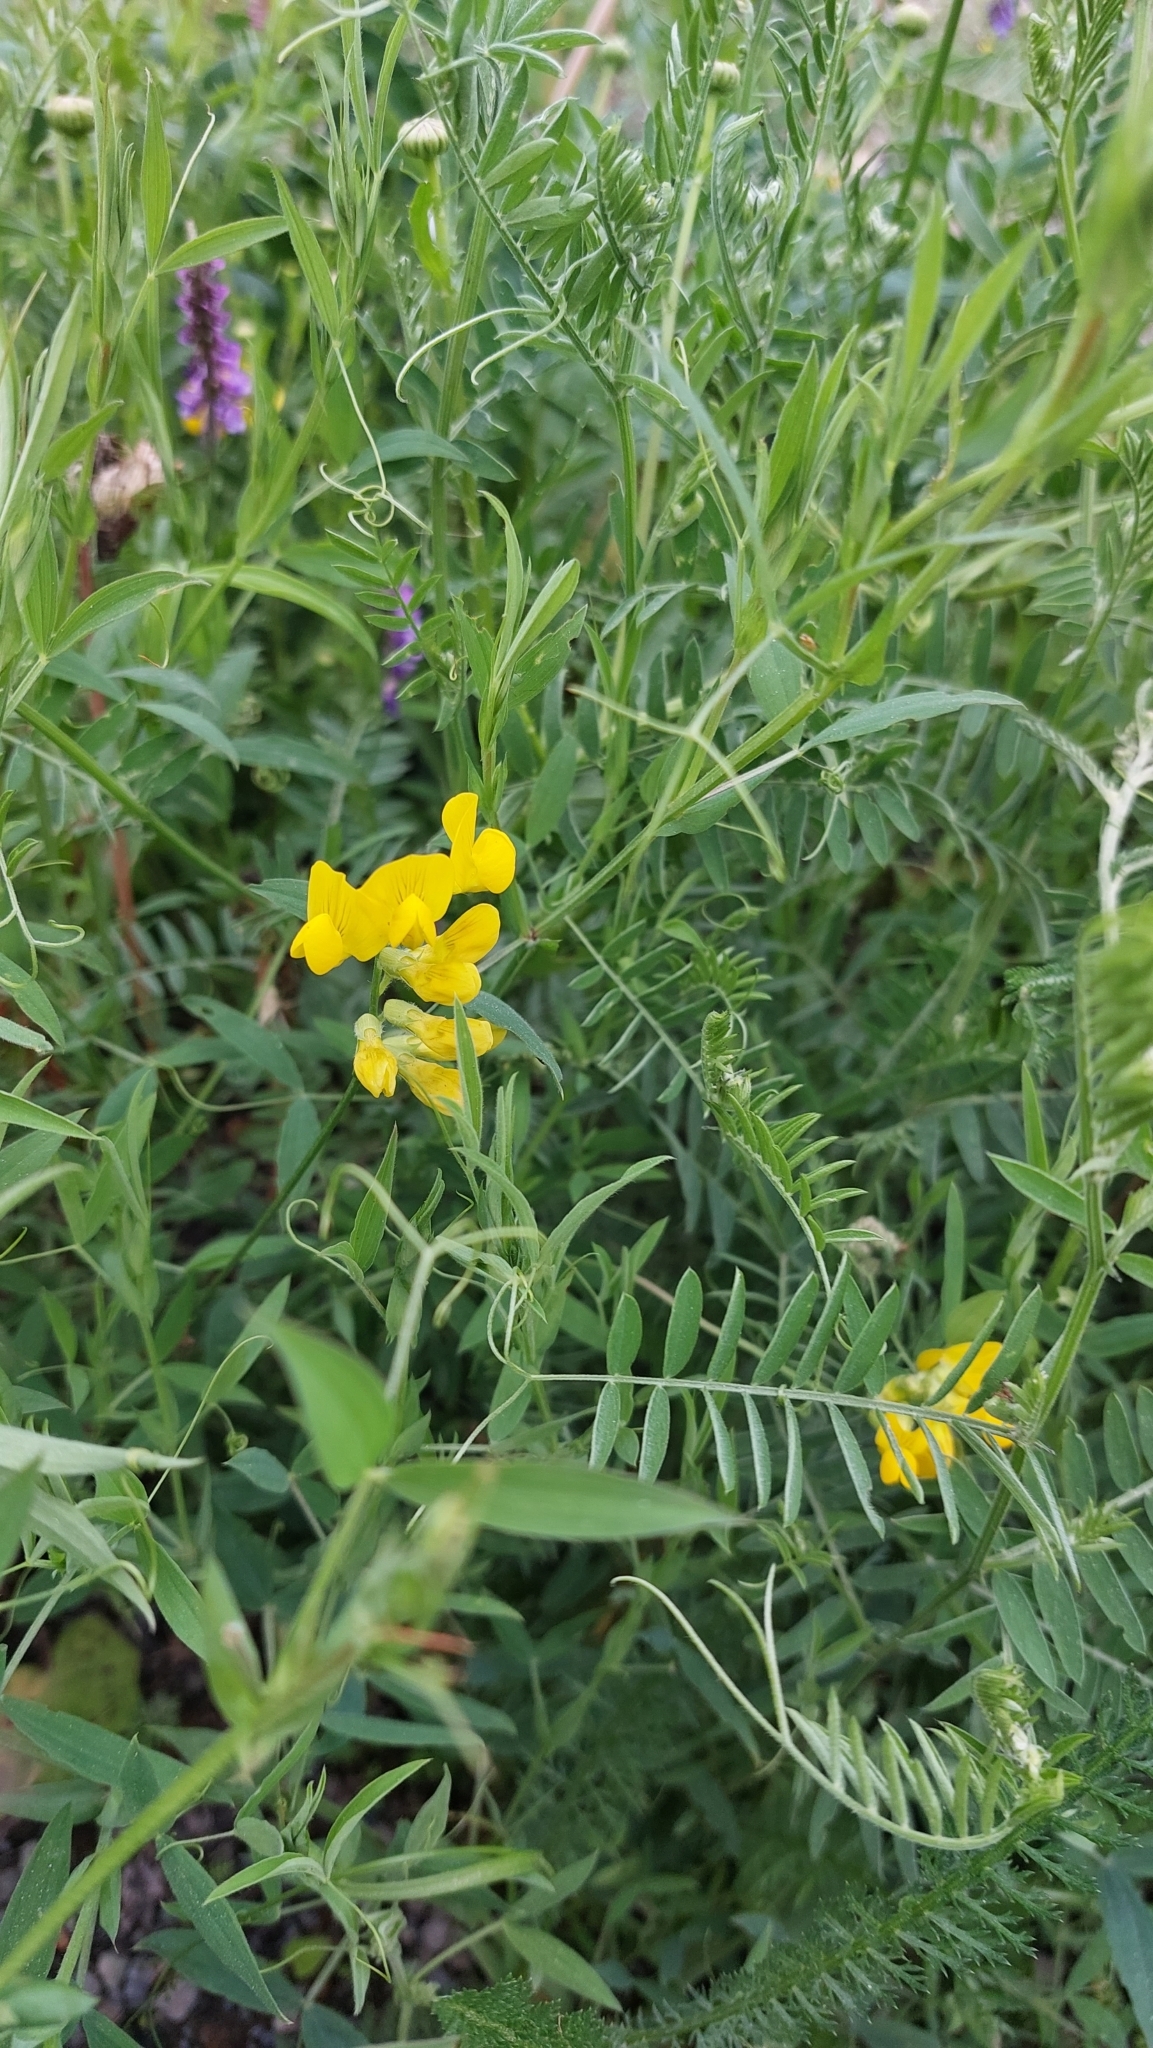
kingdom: Plantae
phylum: Tracheophyta
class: Magnoliopsida
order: Fabales
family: Fabaceae
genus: Lathyrus
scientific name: Lathyrus pratensis
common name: Meadow vetchling
